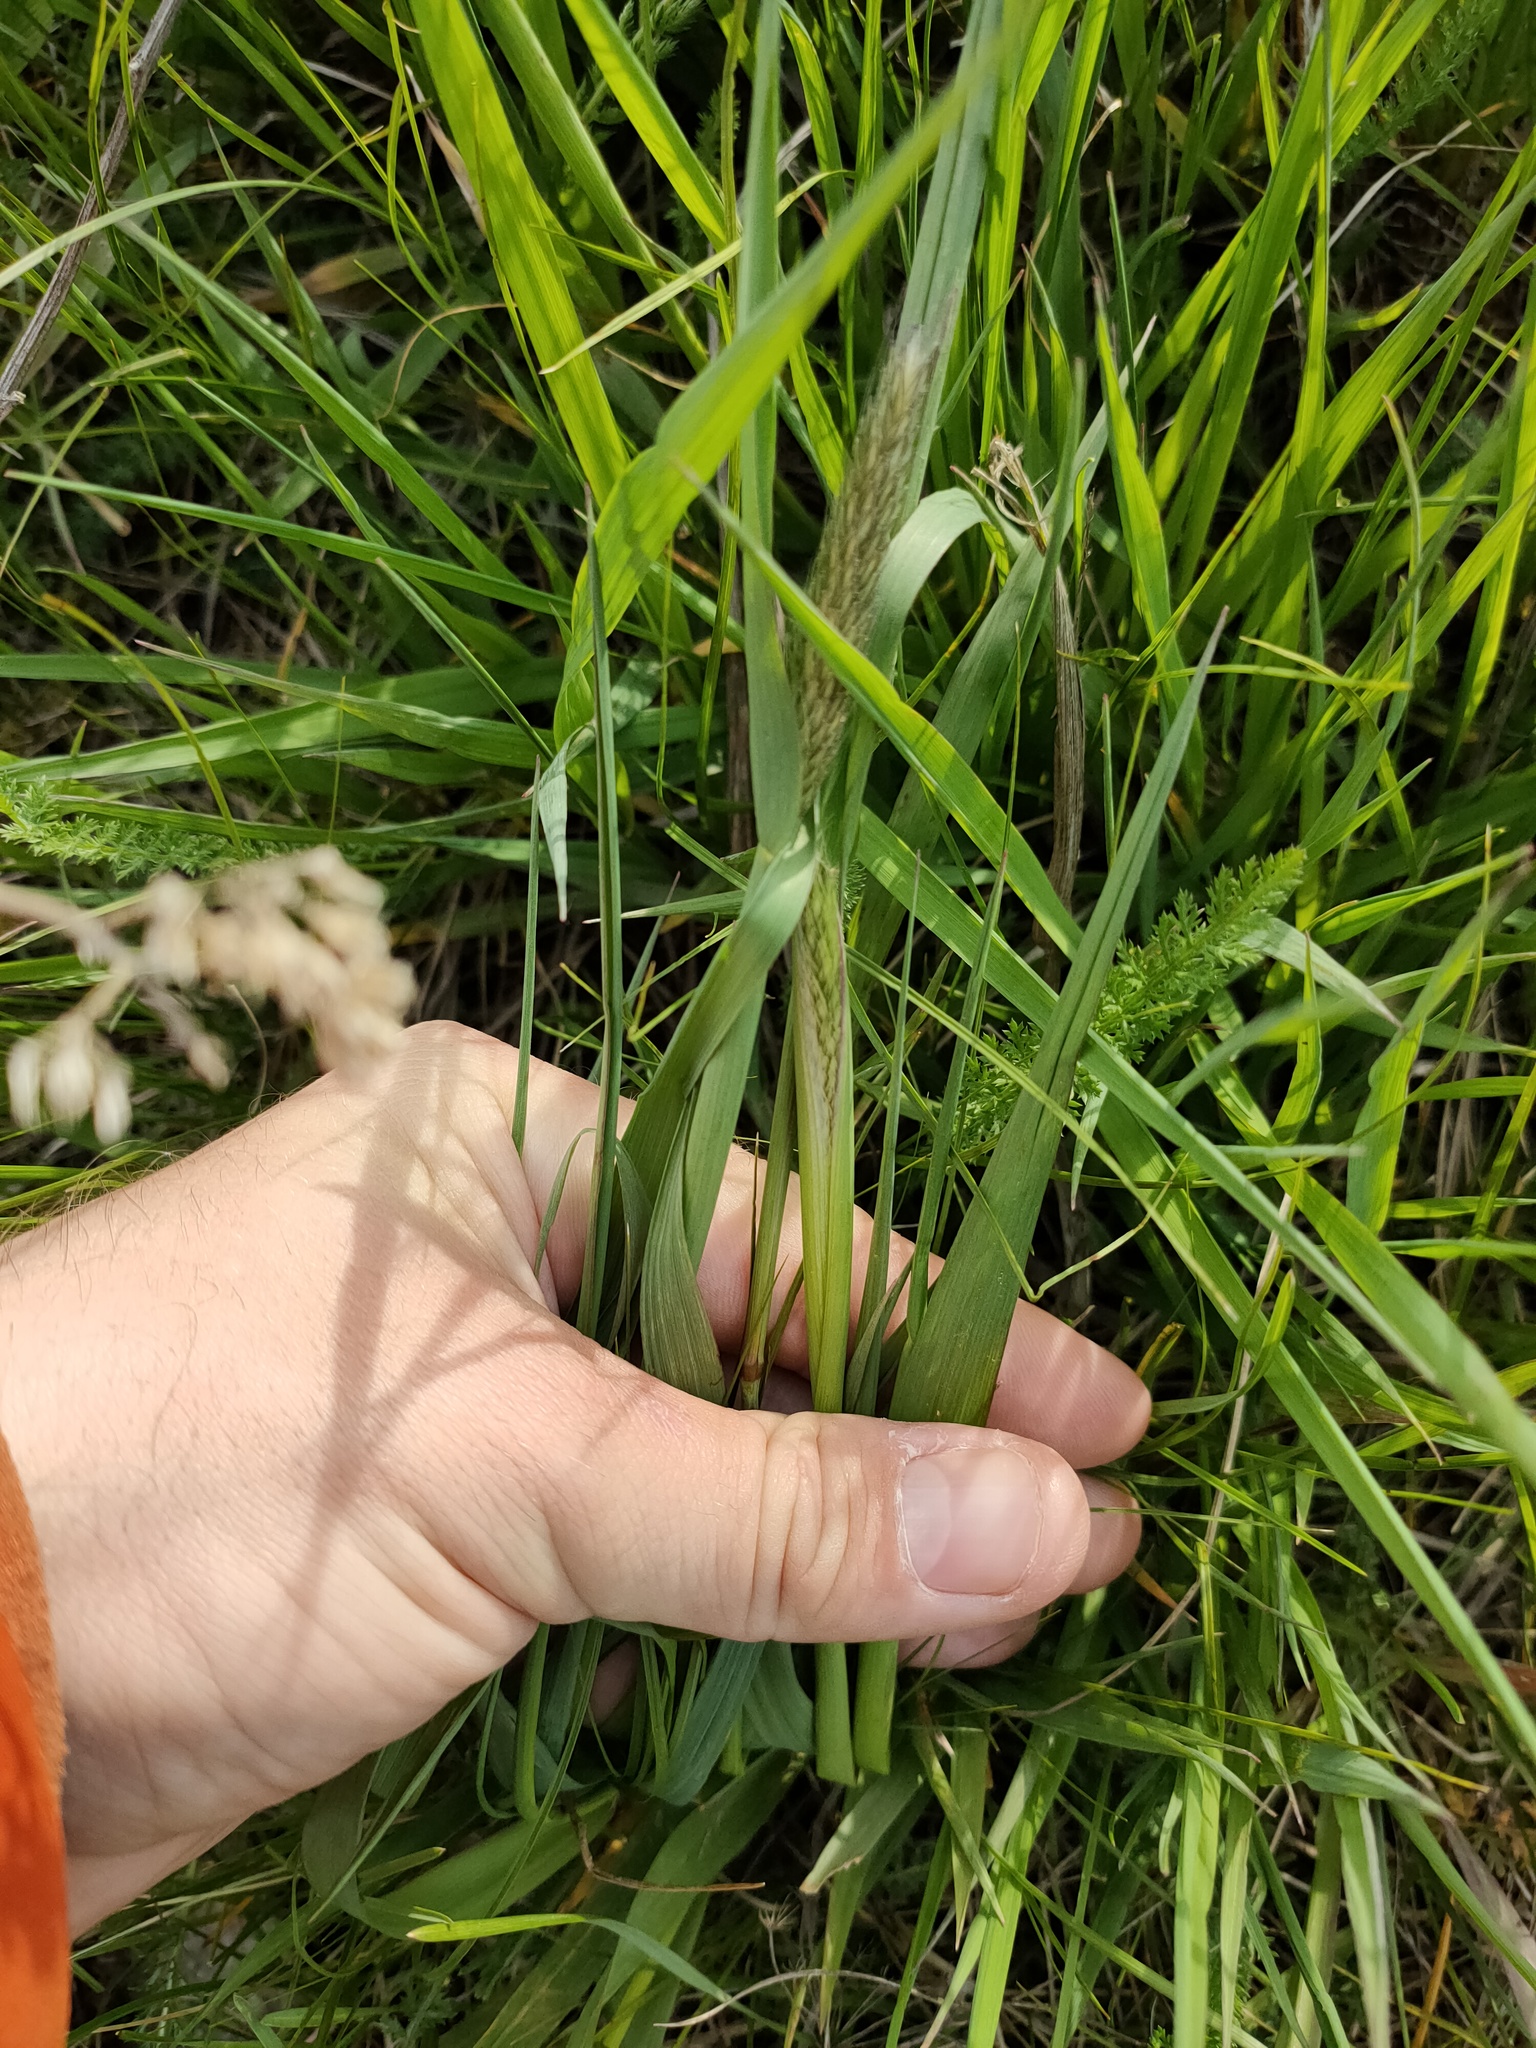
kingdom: Plantae
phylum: Tracheophyta
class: Liliopsida
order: Poales
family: Poaceae
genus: Alopecurus
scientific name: Alopecurus pratensis
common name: Meadow foxtail
